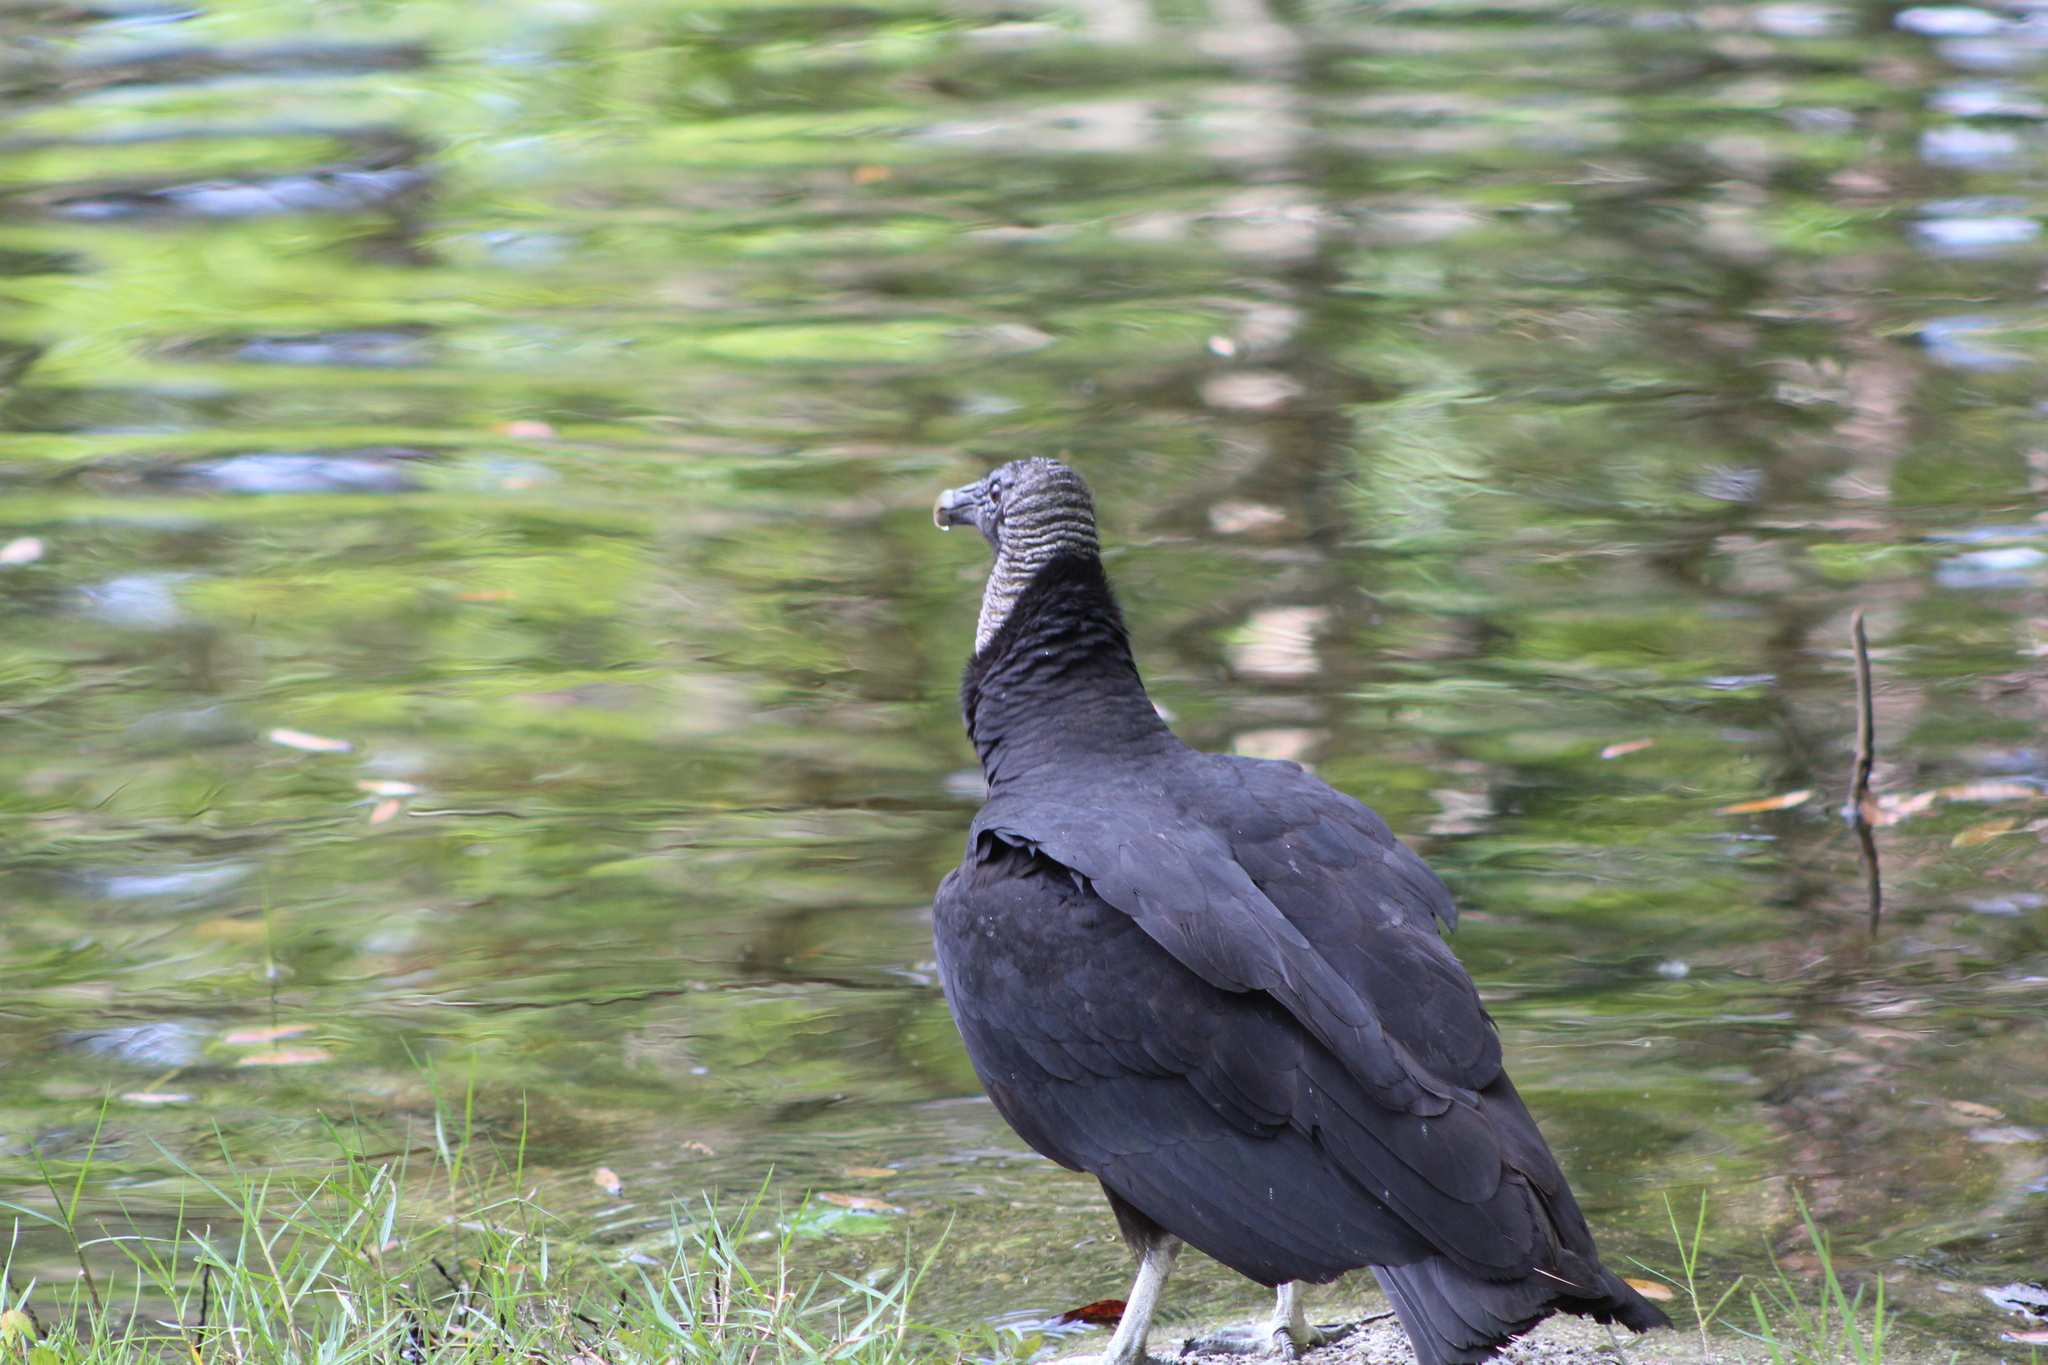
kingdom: Animalia
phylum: Chordata
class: Aves
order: Accipitriformes
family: Cathartidae
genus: Coragyps
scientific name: Coragyps atratus
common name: Black vulture
